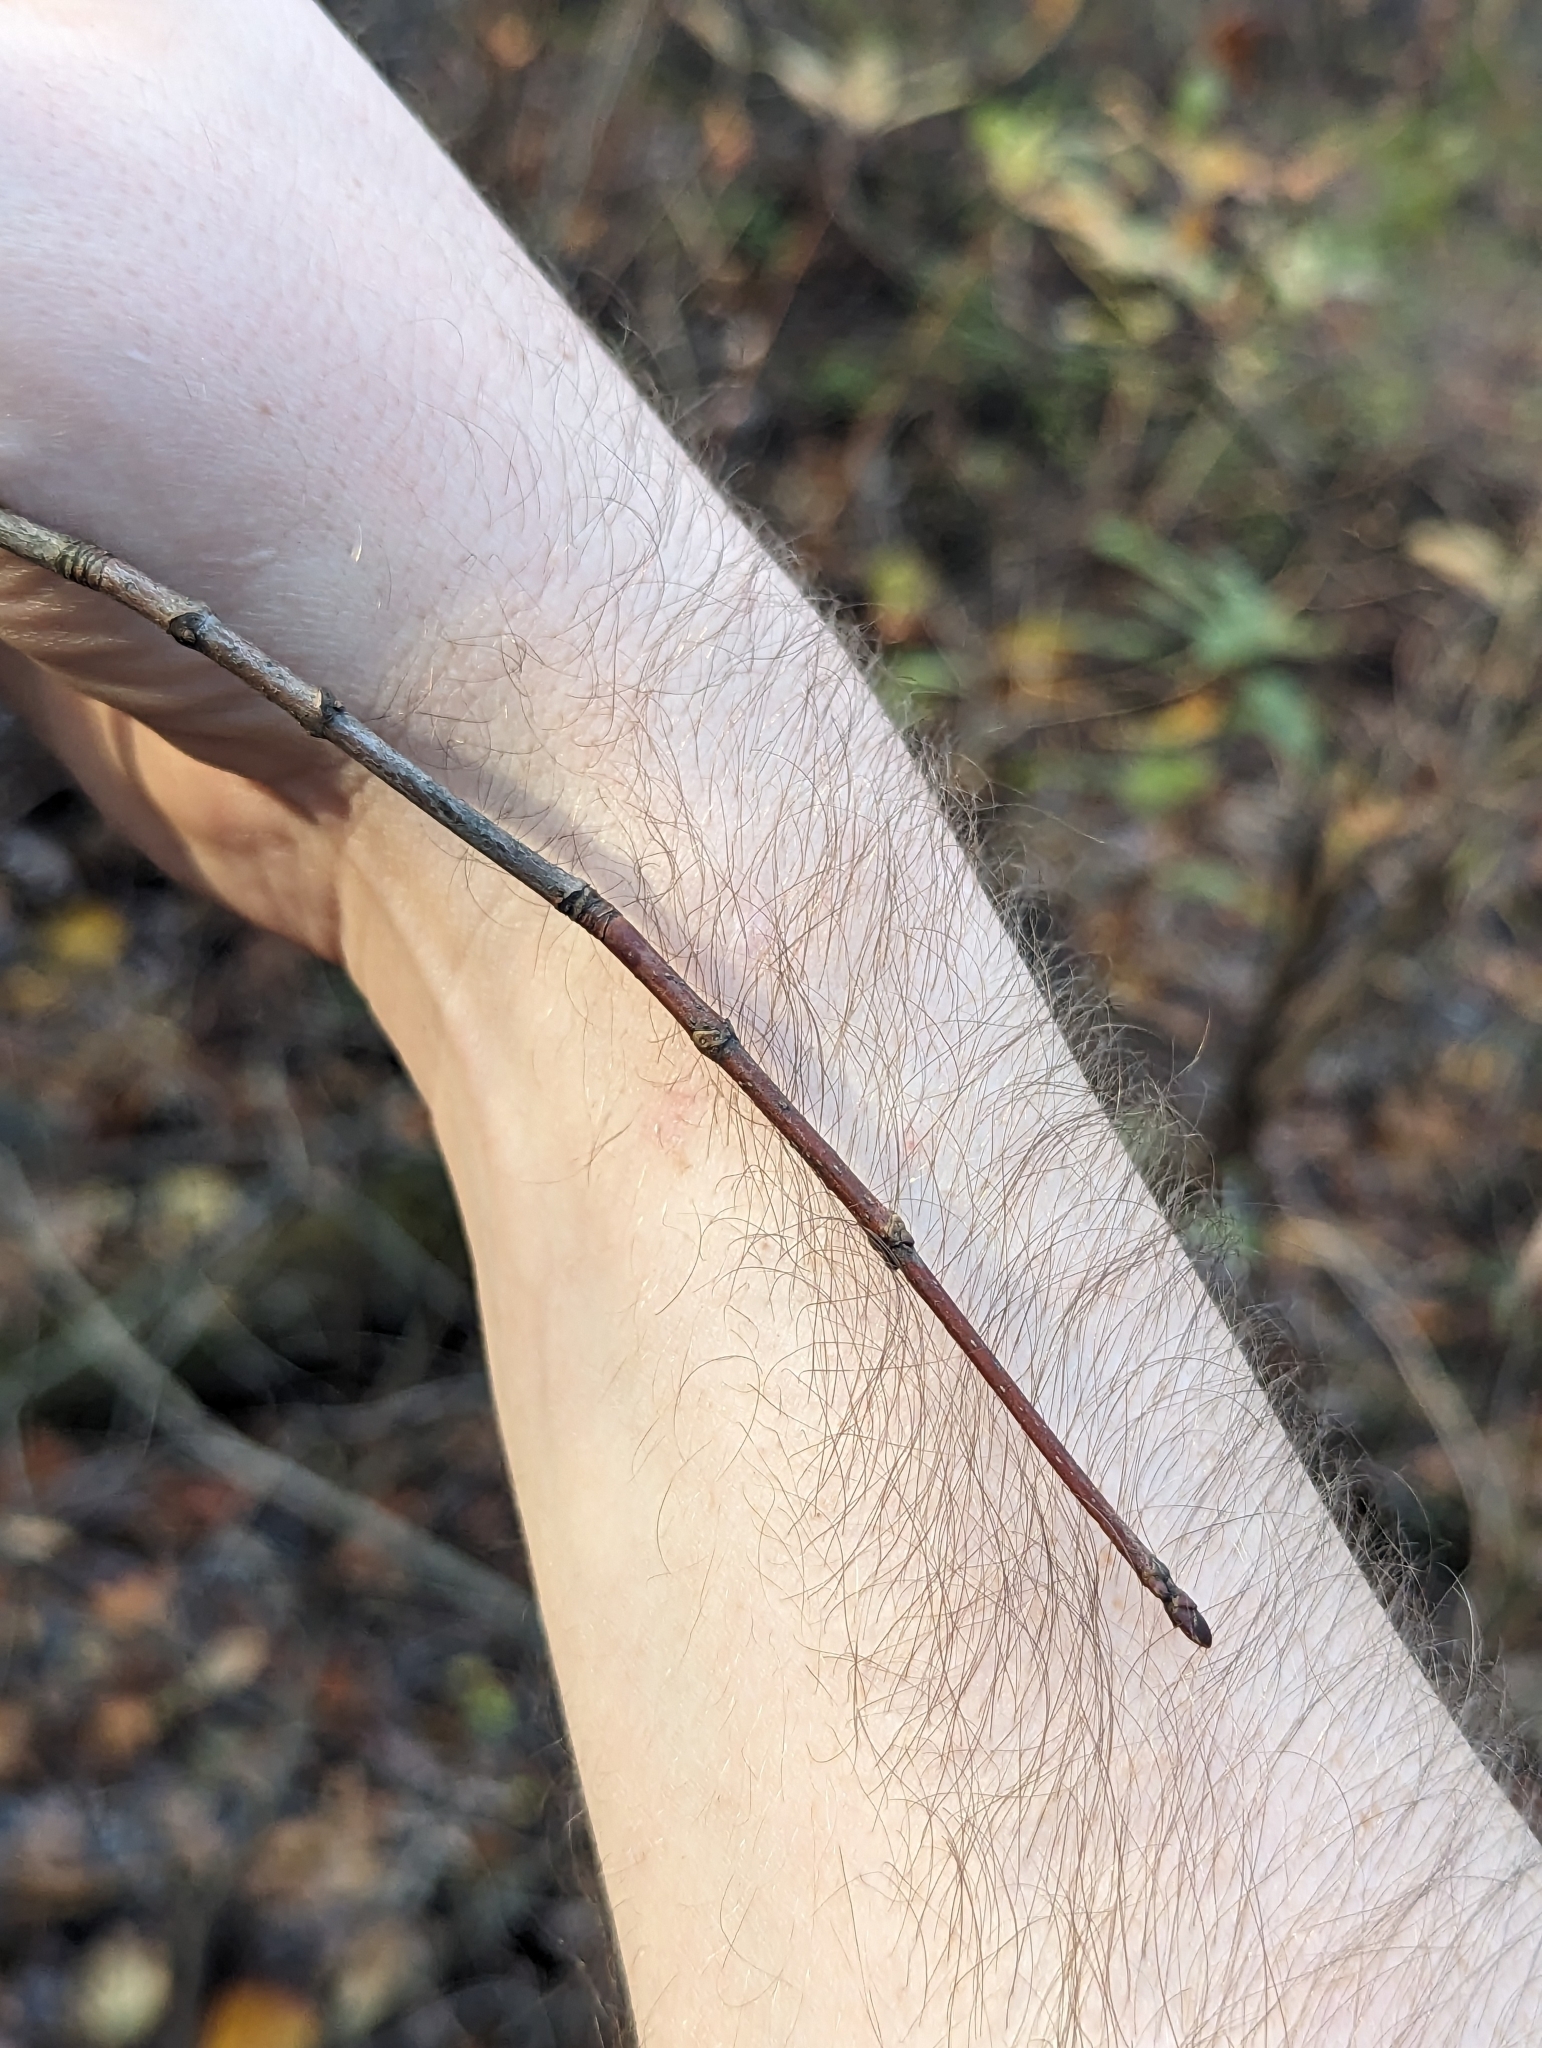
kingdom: Plantae
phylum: Tracheophyta
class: Magnoliopsida
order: Sapindales
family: Sapindaceae
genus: Acer
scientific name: Acer rubrum
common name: Red maple
